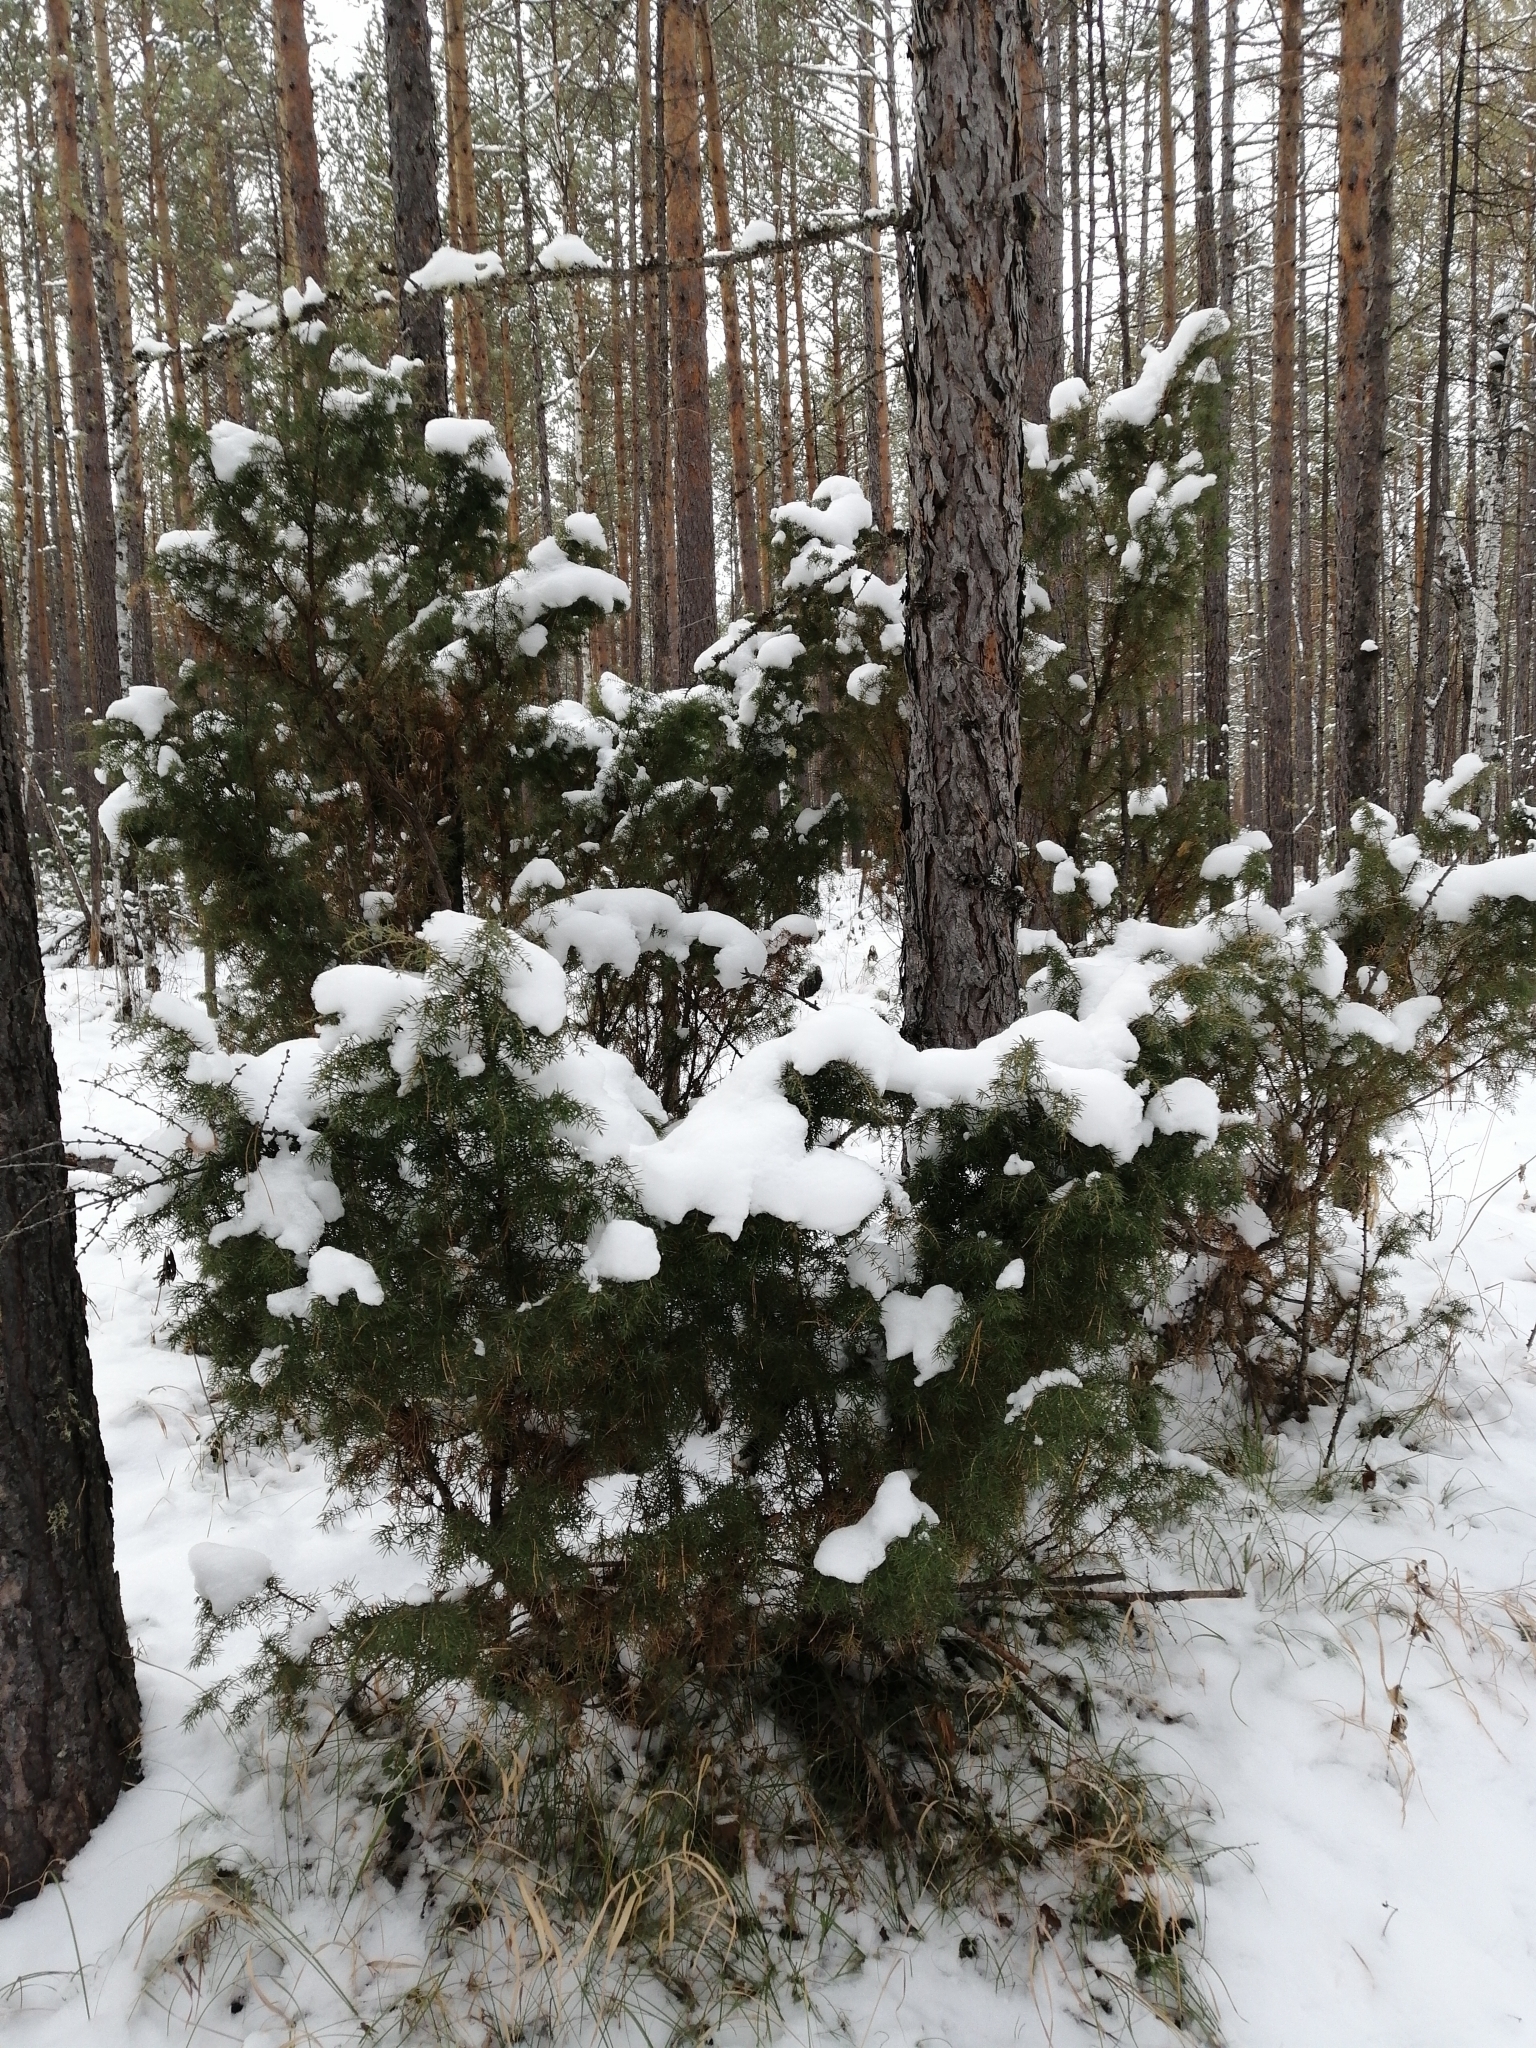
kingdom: Plantae
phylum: Tracheophyta
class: Pinopsida
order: Pinales
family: Cupressaceae
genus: Juniperus
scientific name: Juniperus communis
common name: Common juniper
